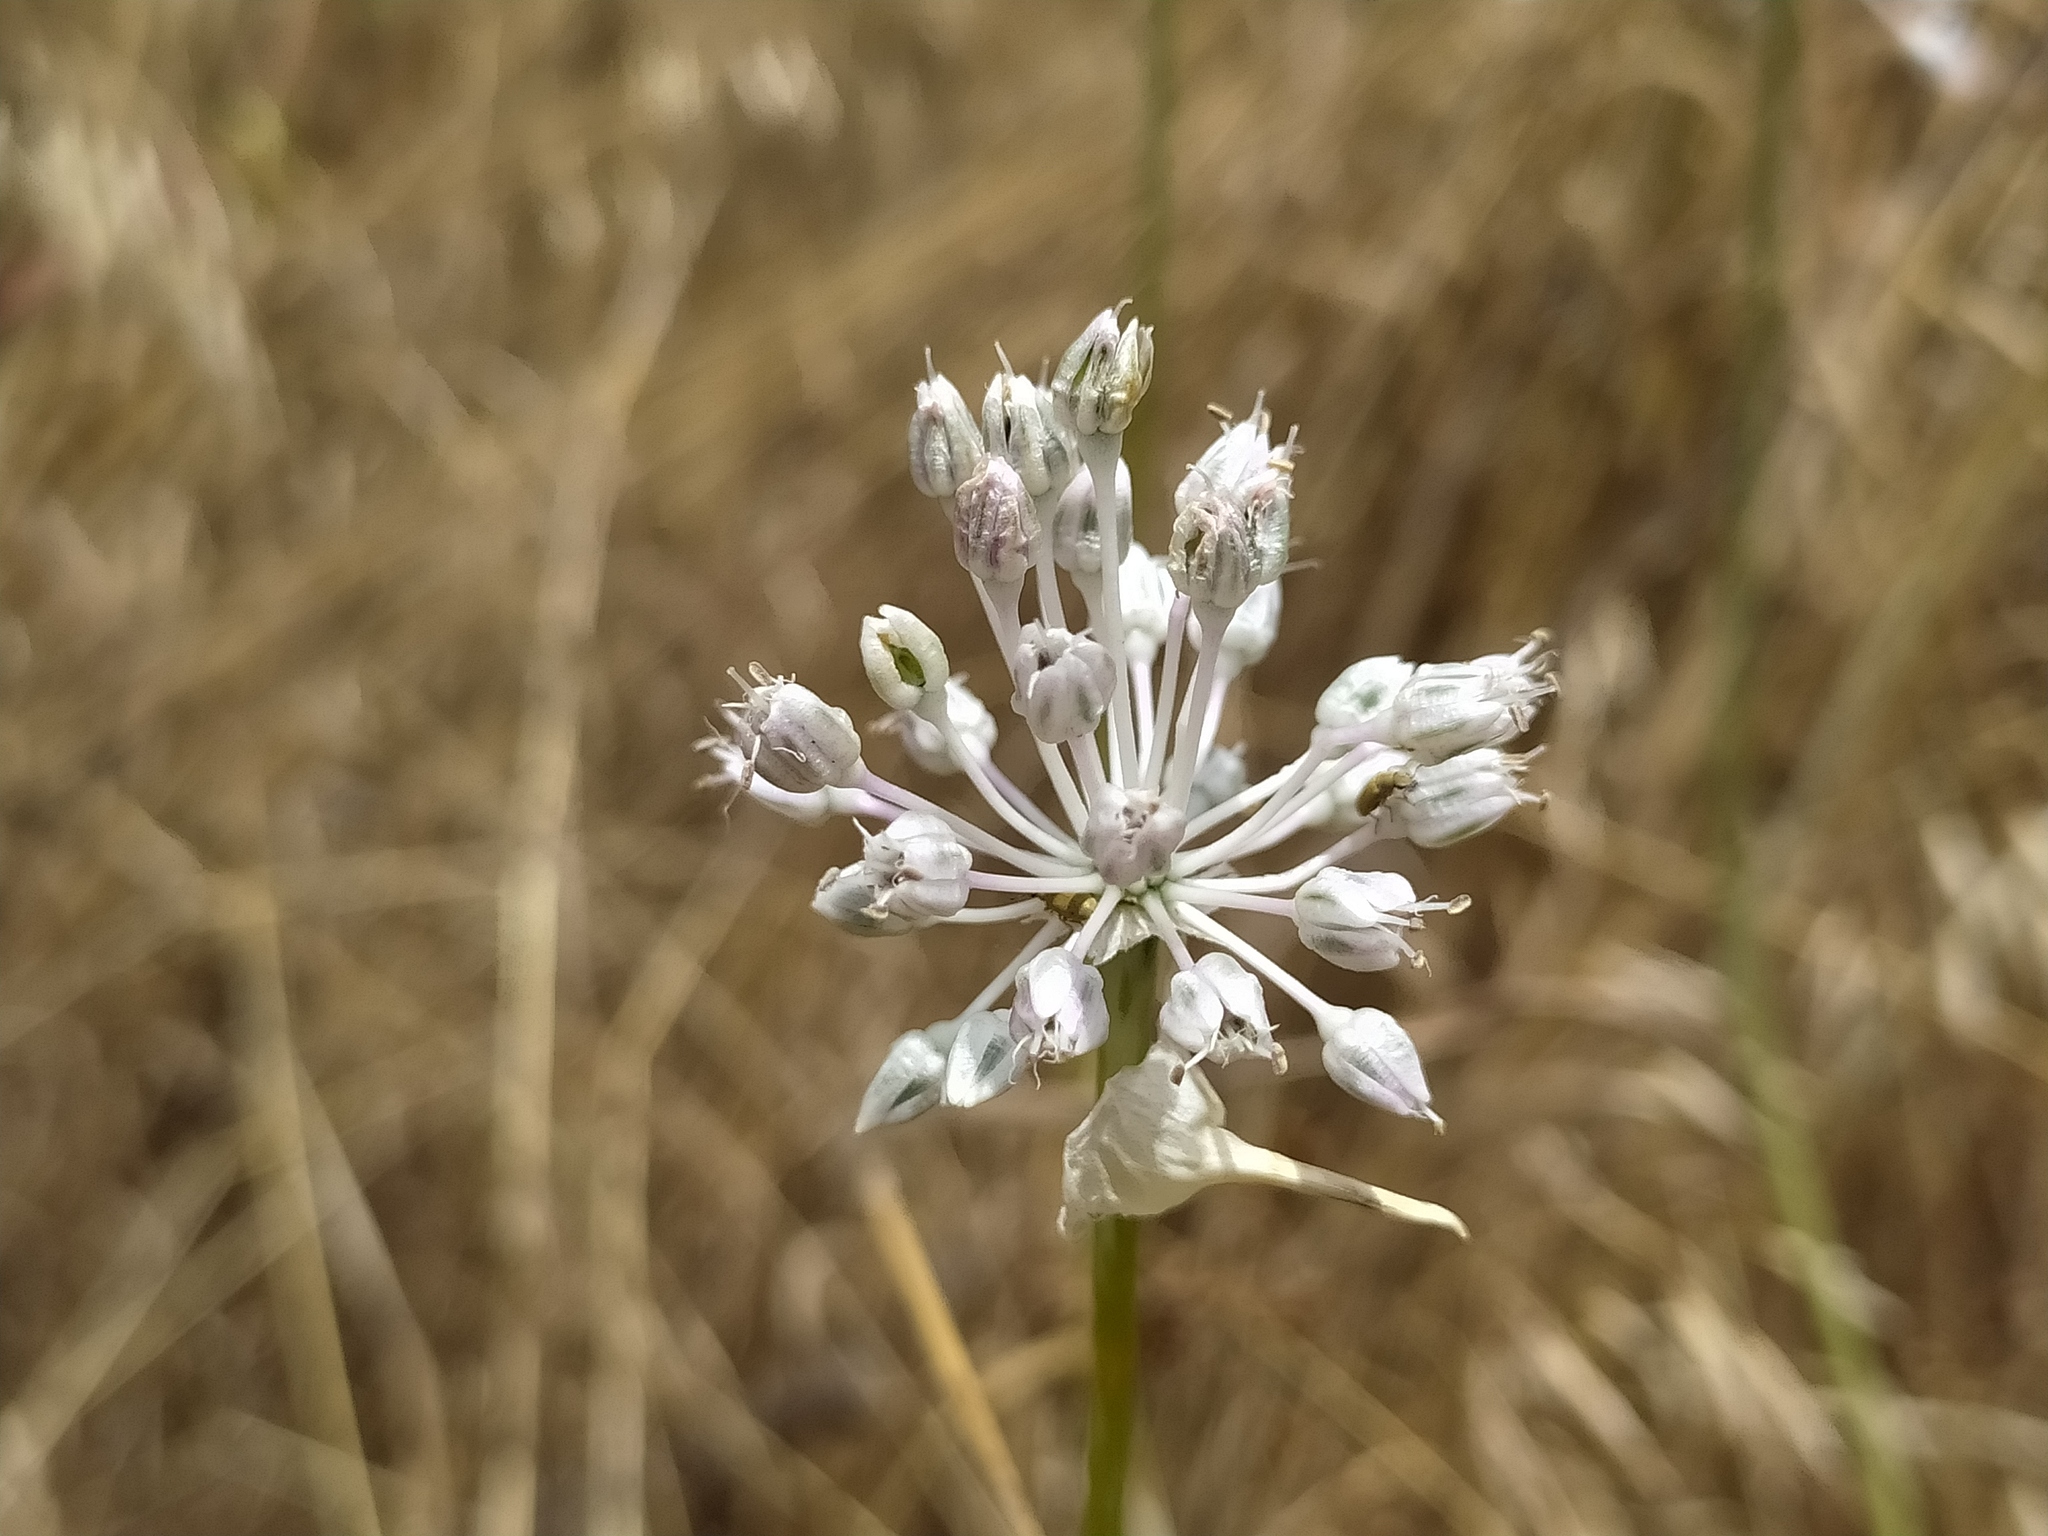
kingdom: Plantae
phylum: Tracheophyta
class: Liliopsida
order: Asparagales
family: Amaryllidaceae
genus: Allium
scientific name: Allium vineale
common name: Crow garlic
